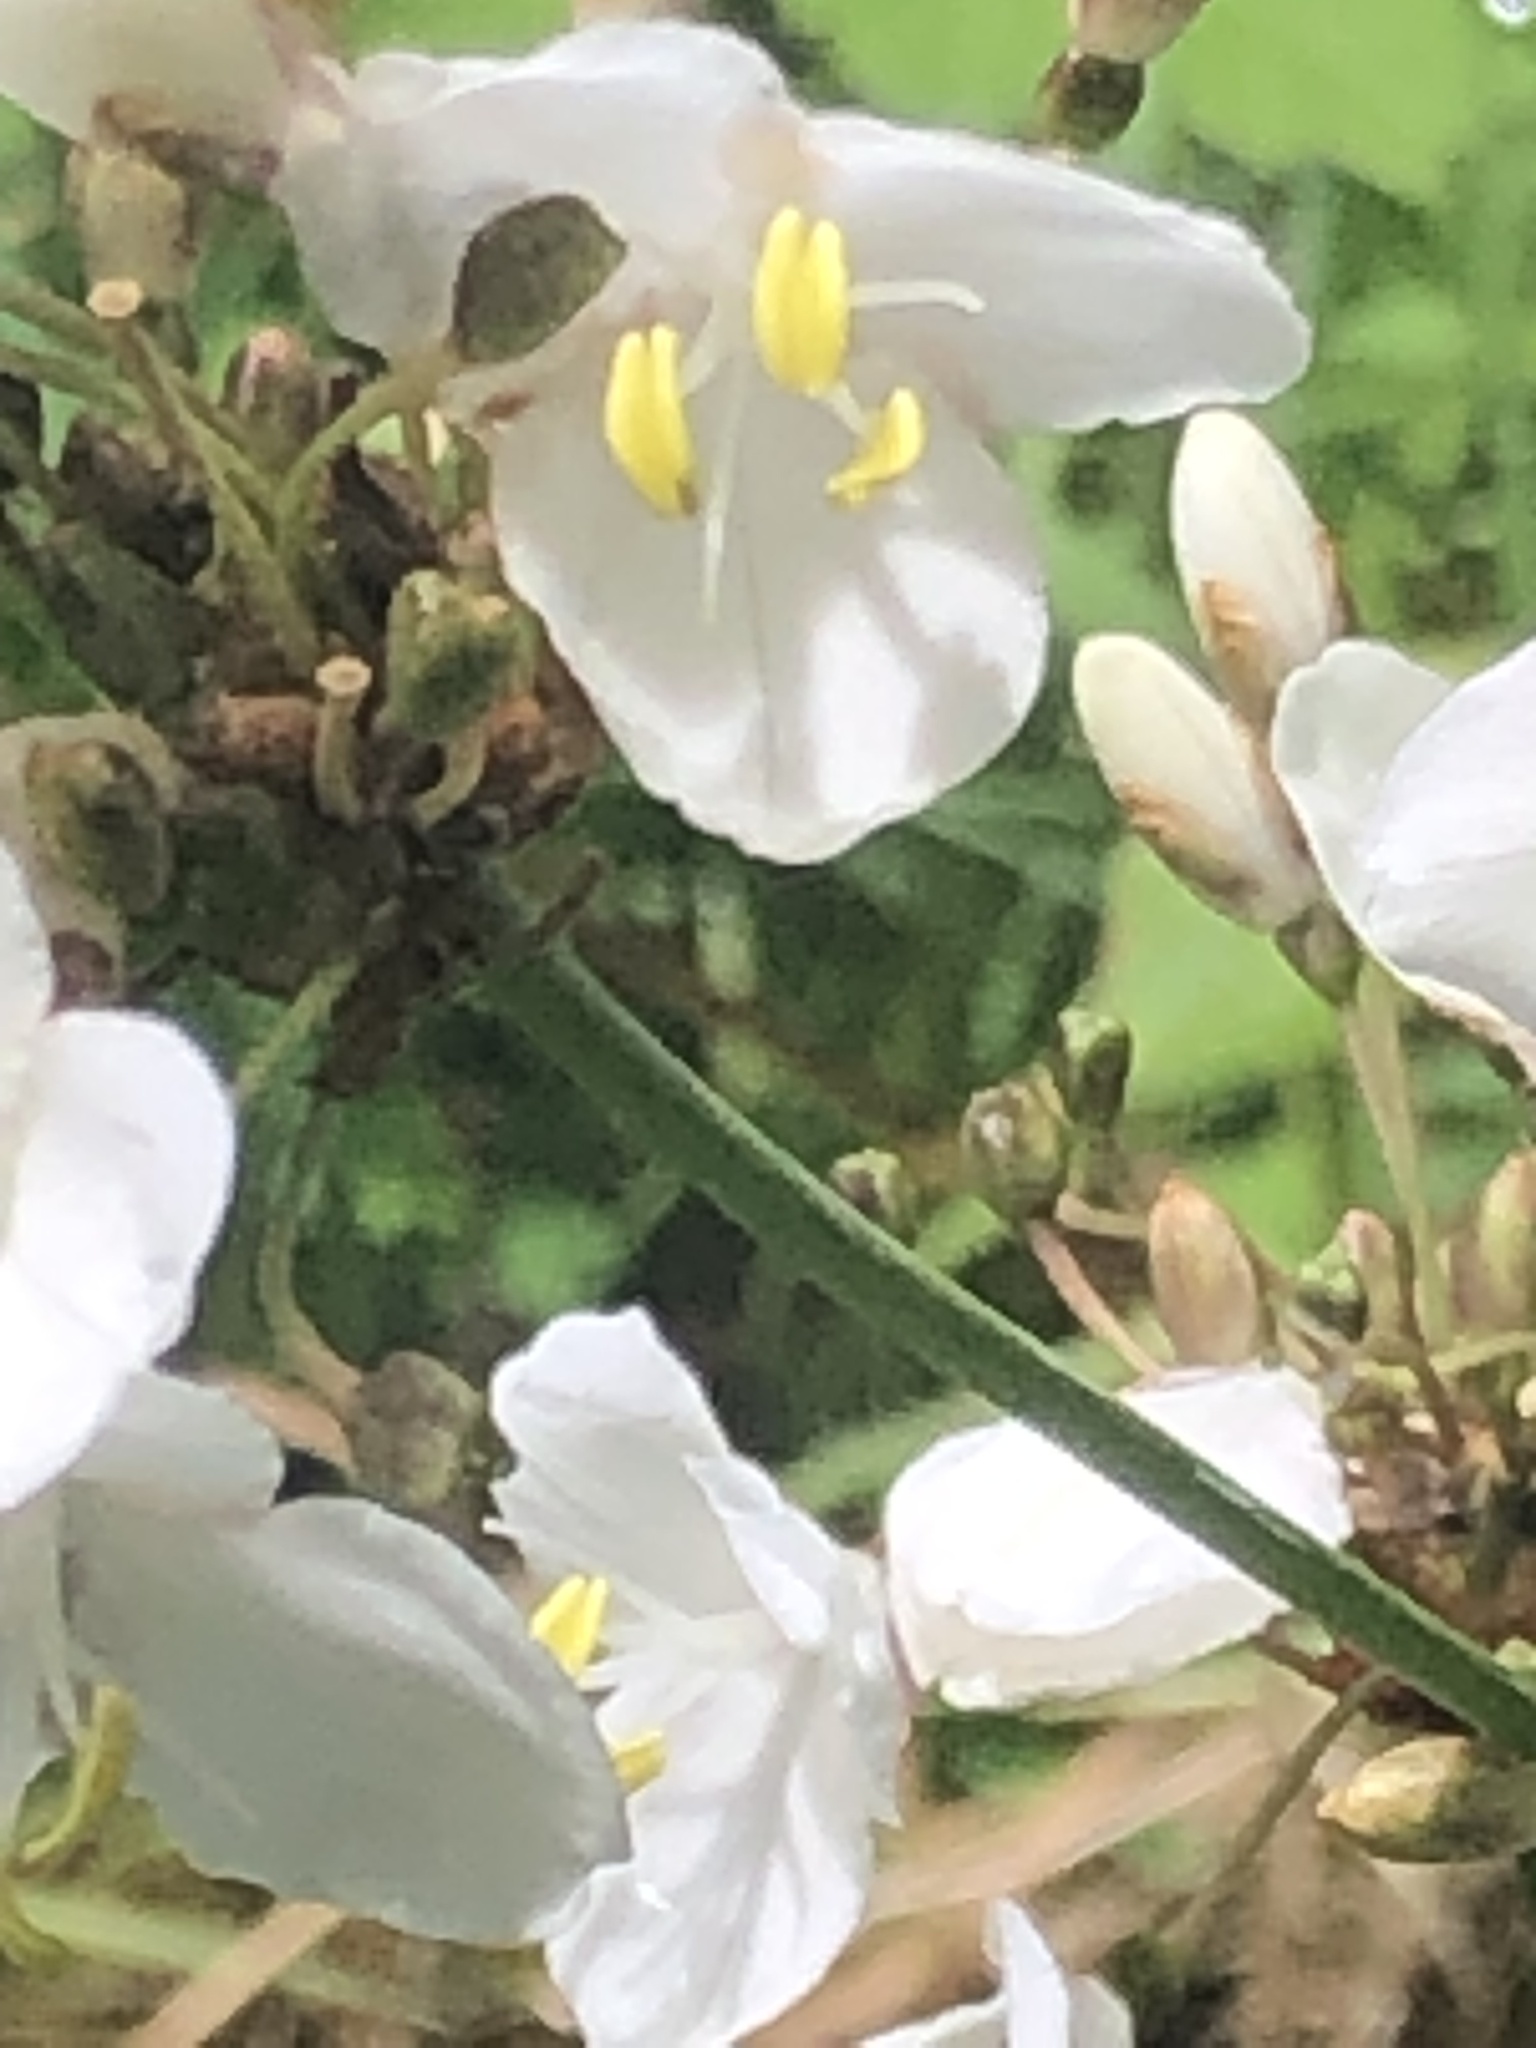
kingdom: Plantae
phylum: Tracheophyta
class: Liliopsida
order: Asparagales
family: Iridaceae
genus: Libertia
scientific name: Libertia chilensis
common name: Satin flower
